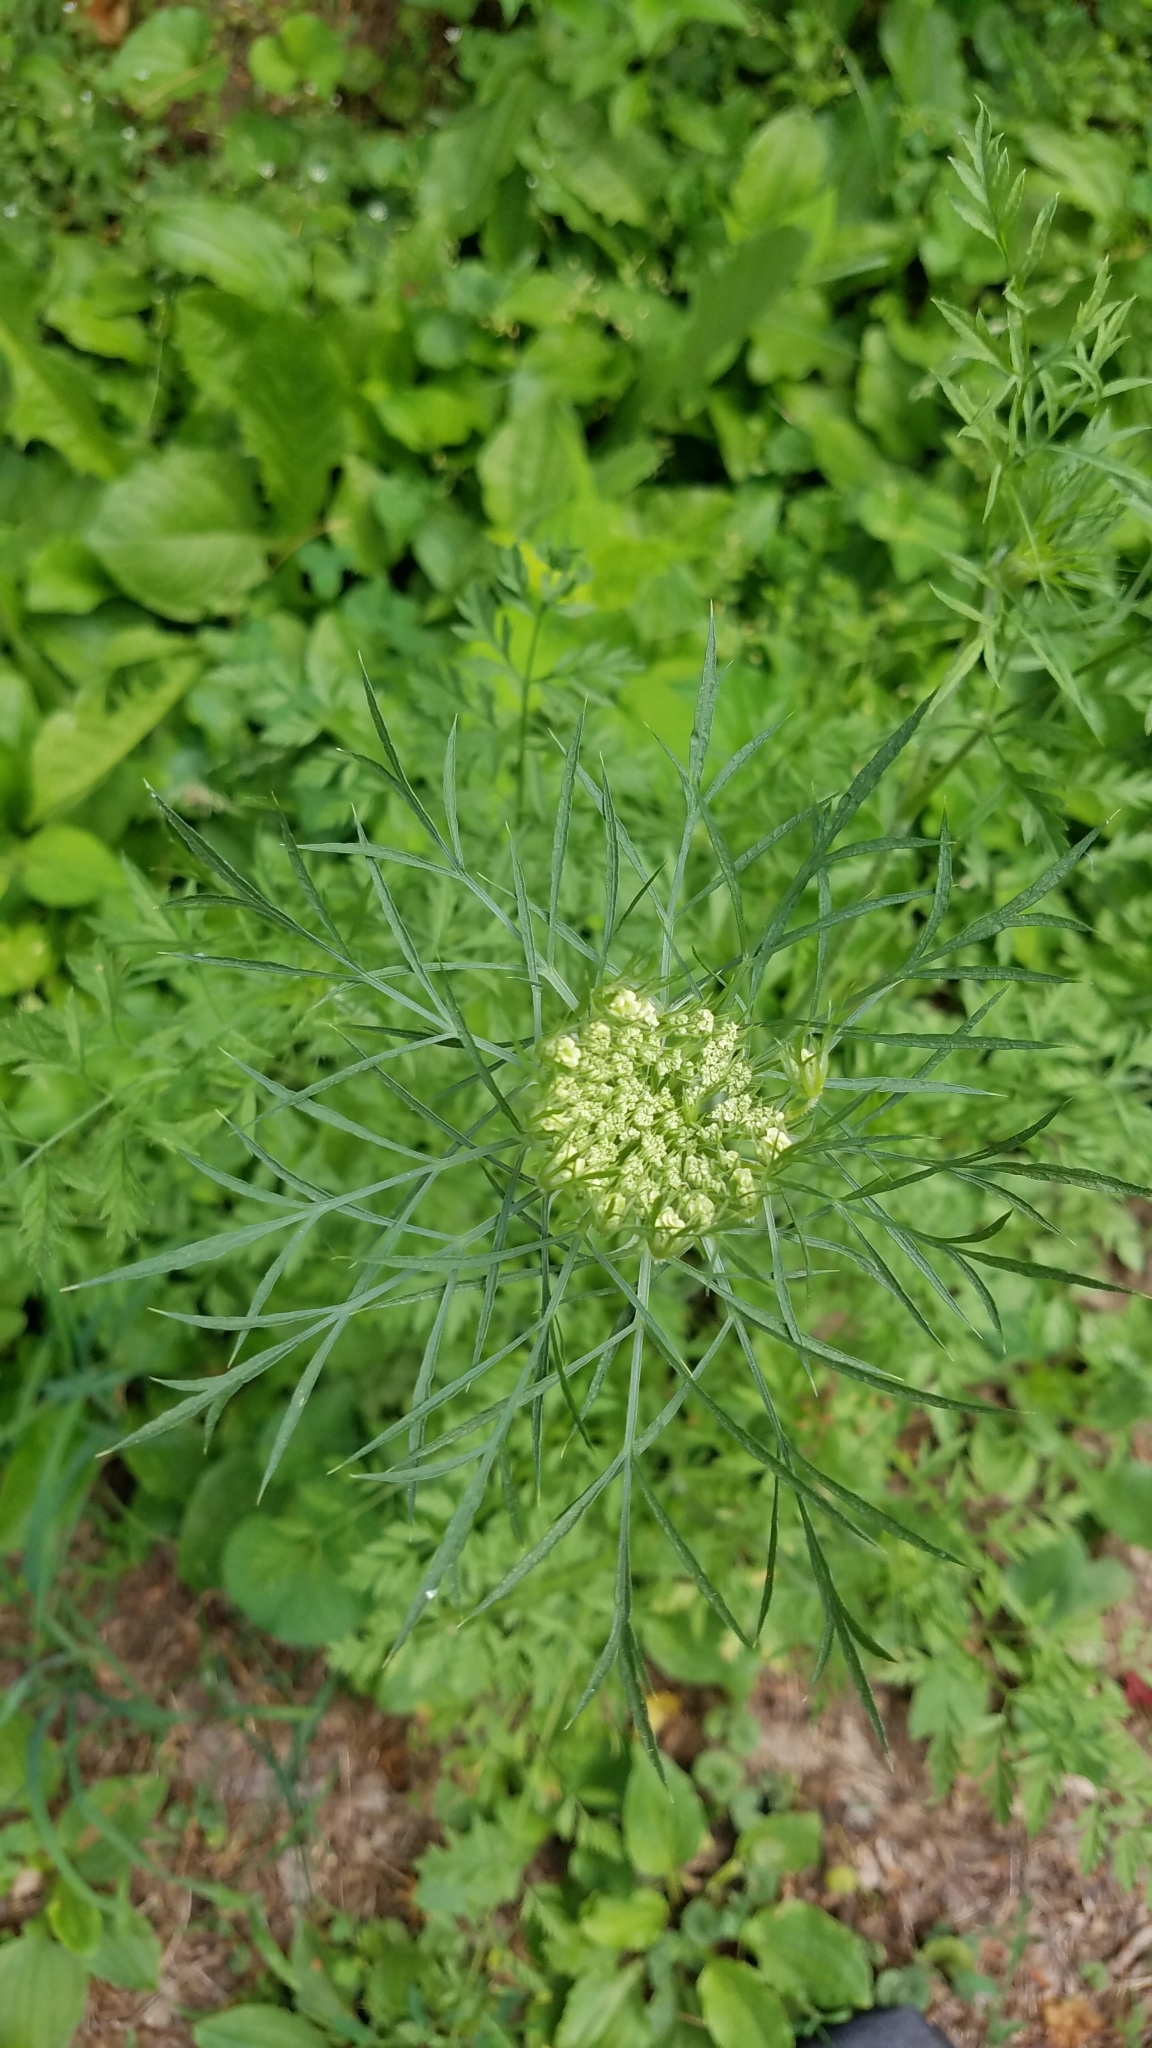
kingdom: Plantae
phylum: Tracheophyta
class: Magnoliopsida
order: Apiales
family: Apiaceae
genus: Daucus
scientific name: Daucus carota
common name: Wild carrot
